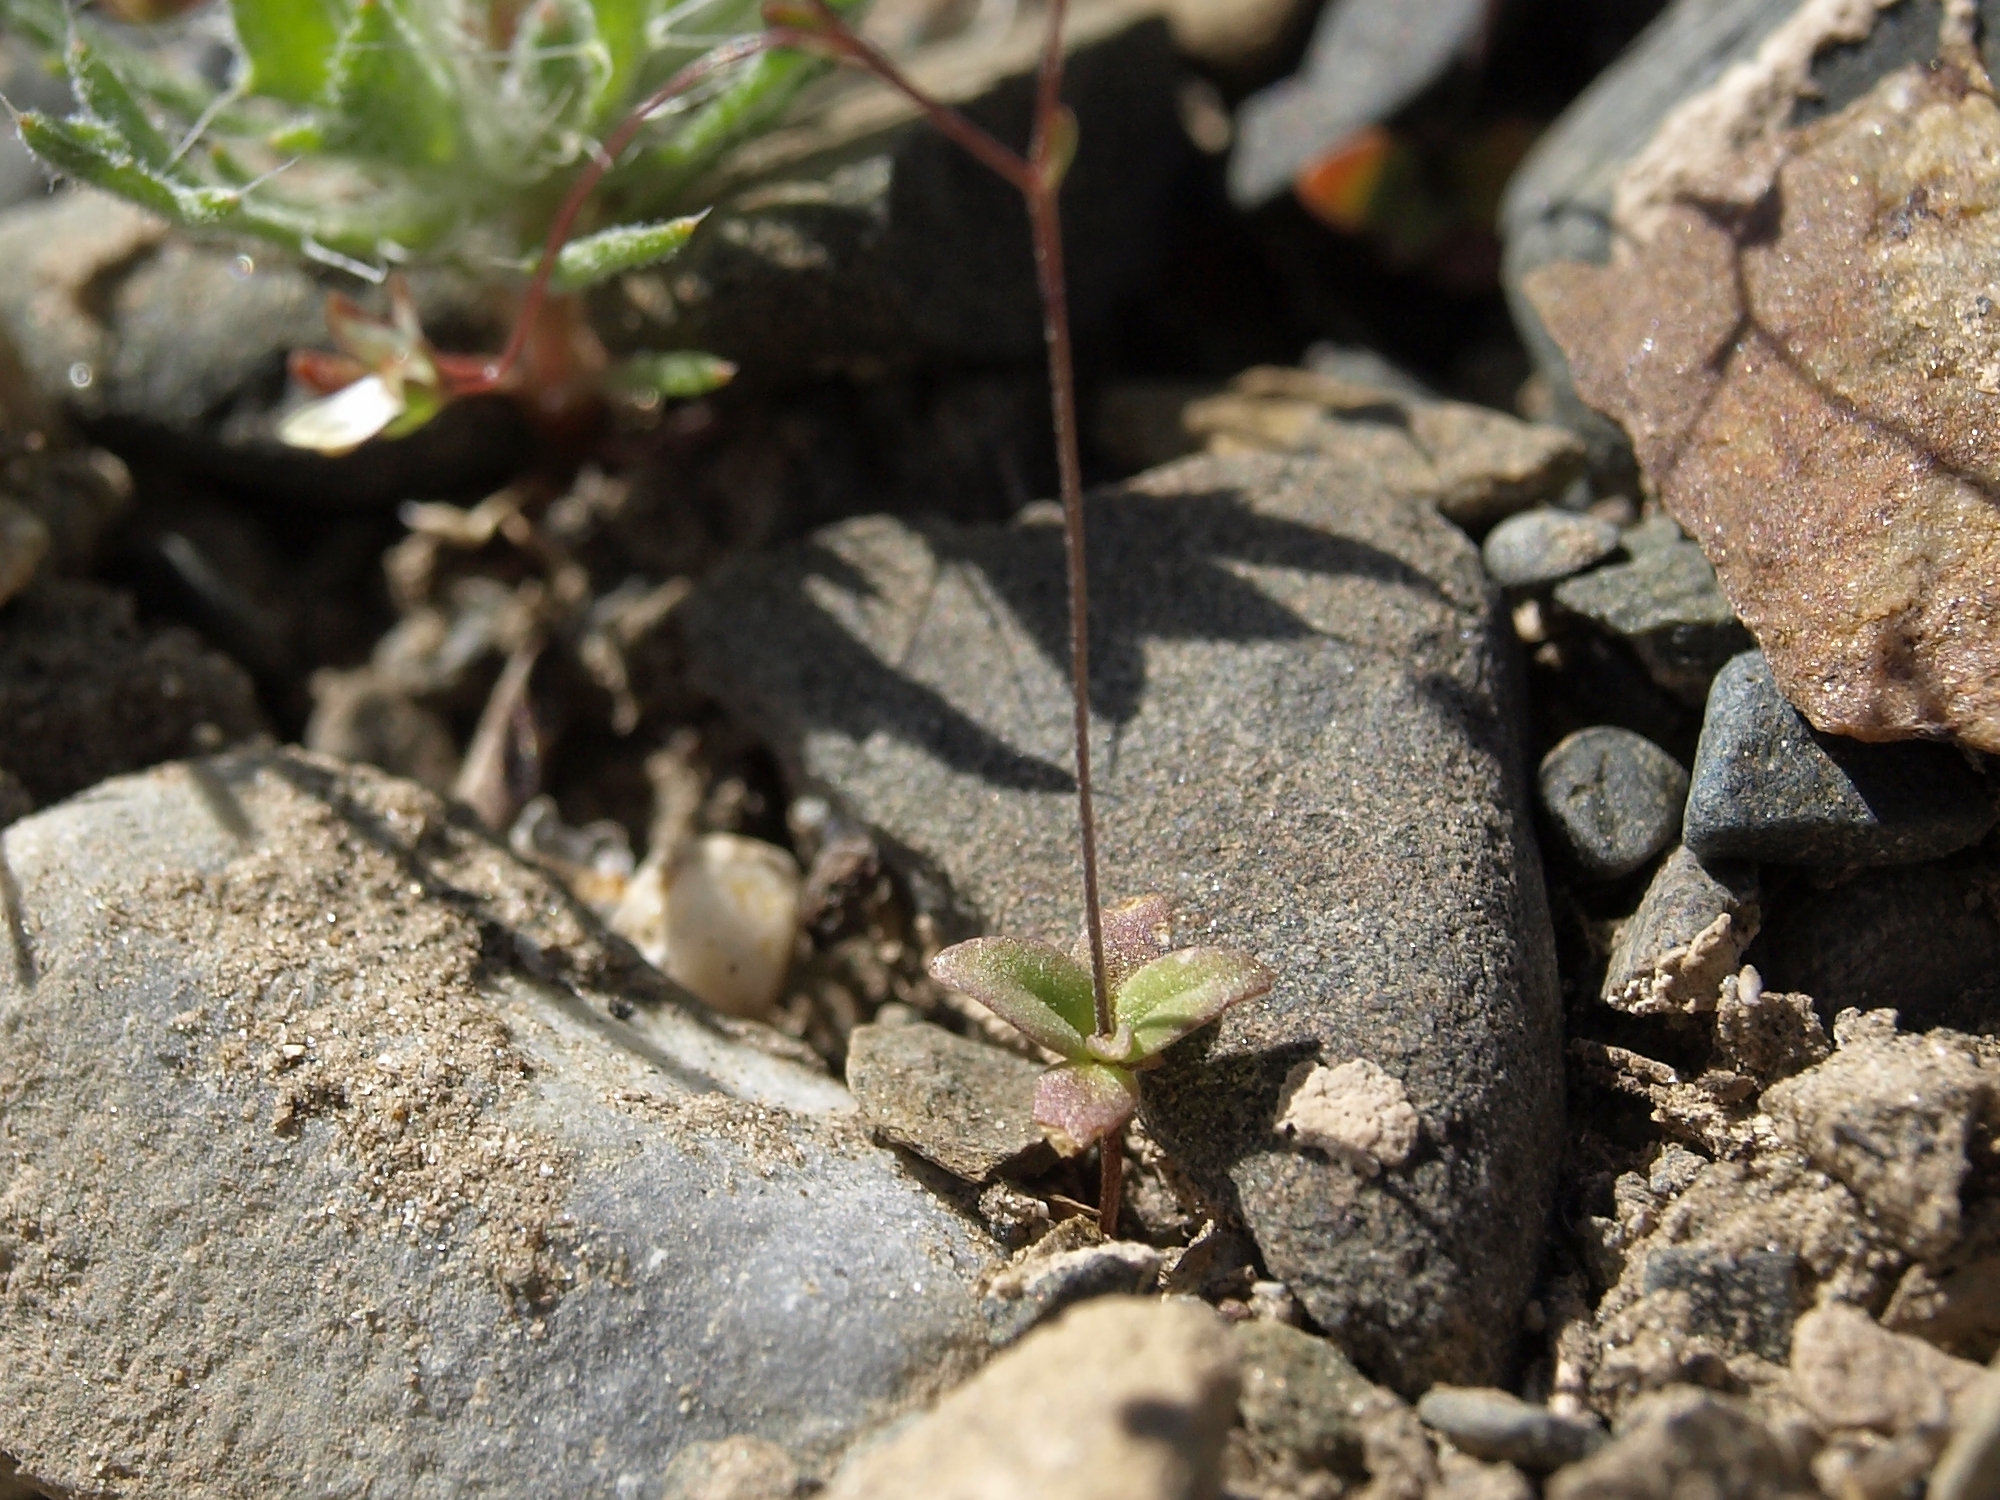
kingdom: Plantae
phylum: Tracheophyta
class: Magnoliopsida
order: Asterales
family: Campanulaceae
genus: Nemacladus
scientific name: Nemacladus morefieldii
